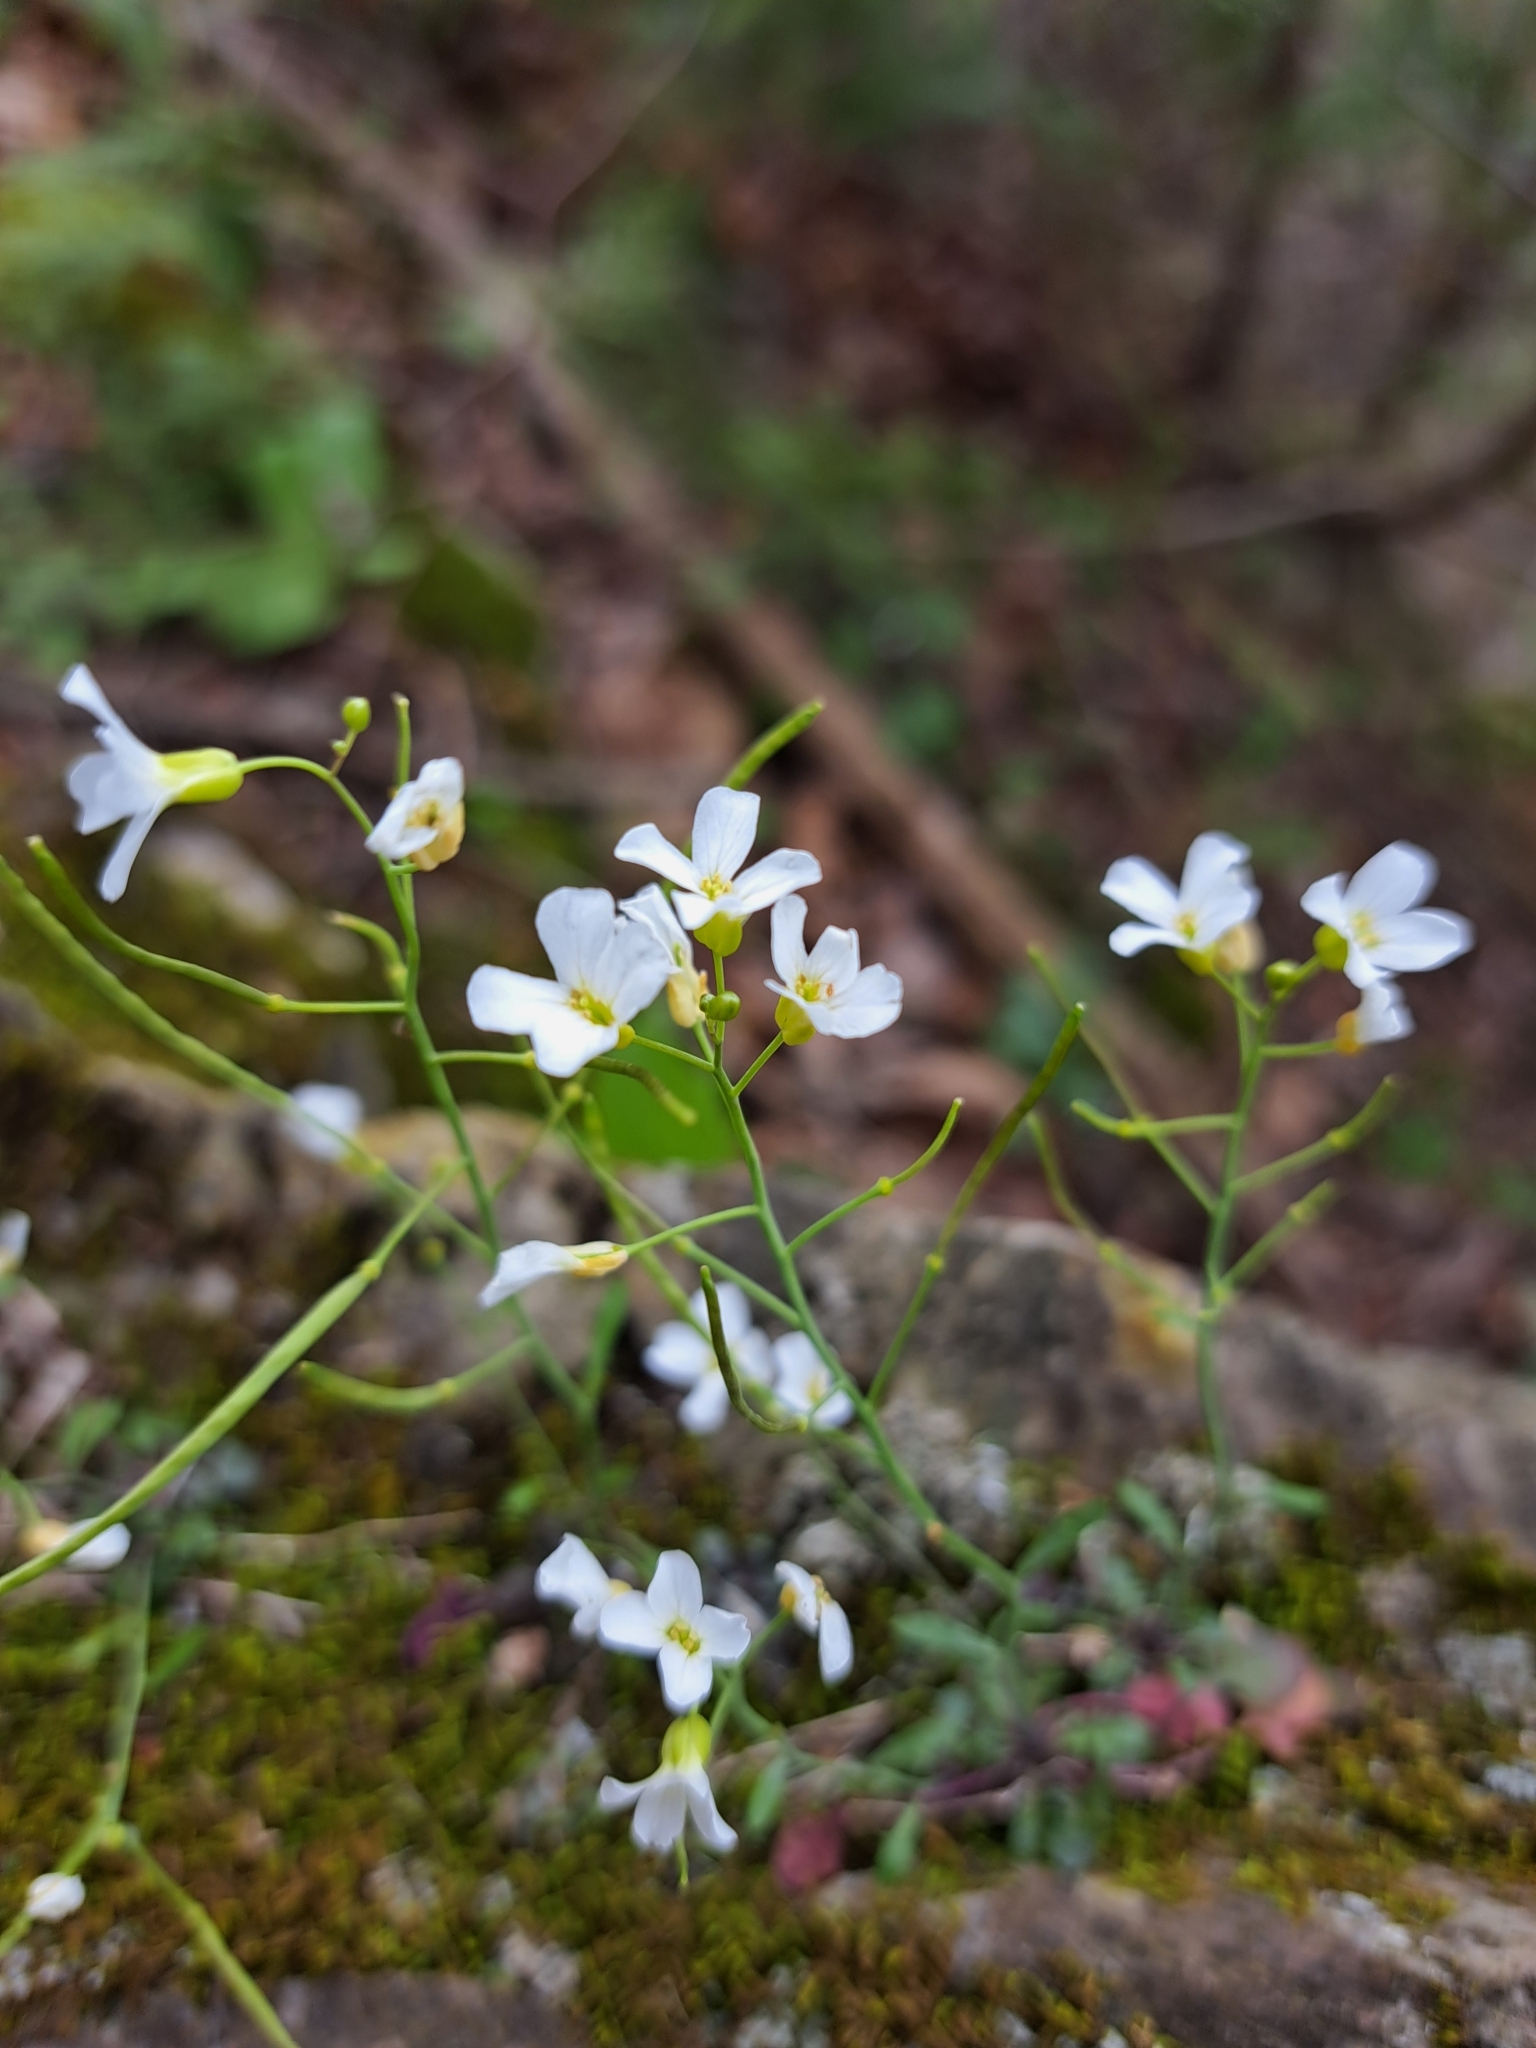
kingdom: Plantae
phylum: Tracheophyta
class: Magnoliopsida
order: Brassicales
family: Brassicaceae
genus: Arabidopsis
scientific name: Arabidopsis lyrata
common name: Lyrate rockcress
